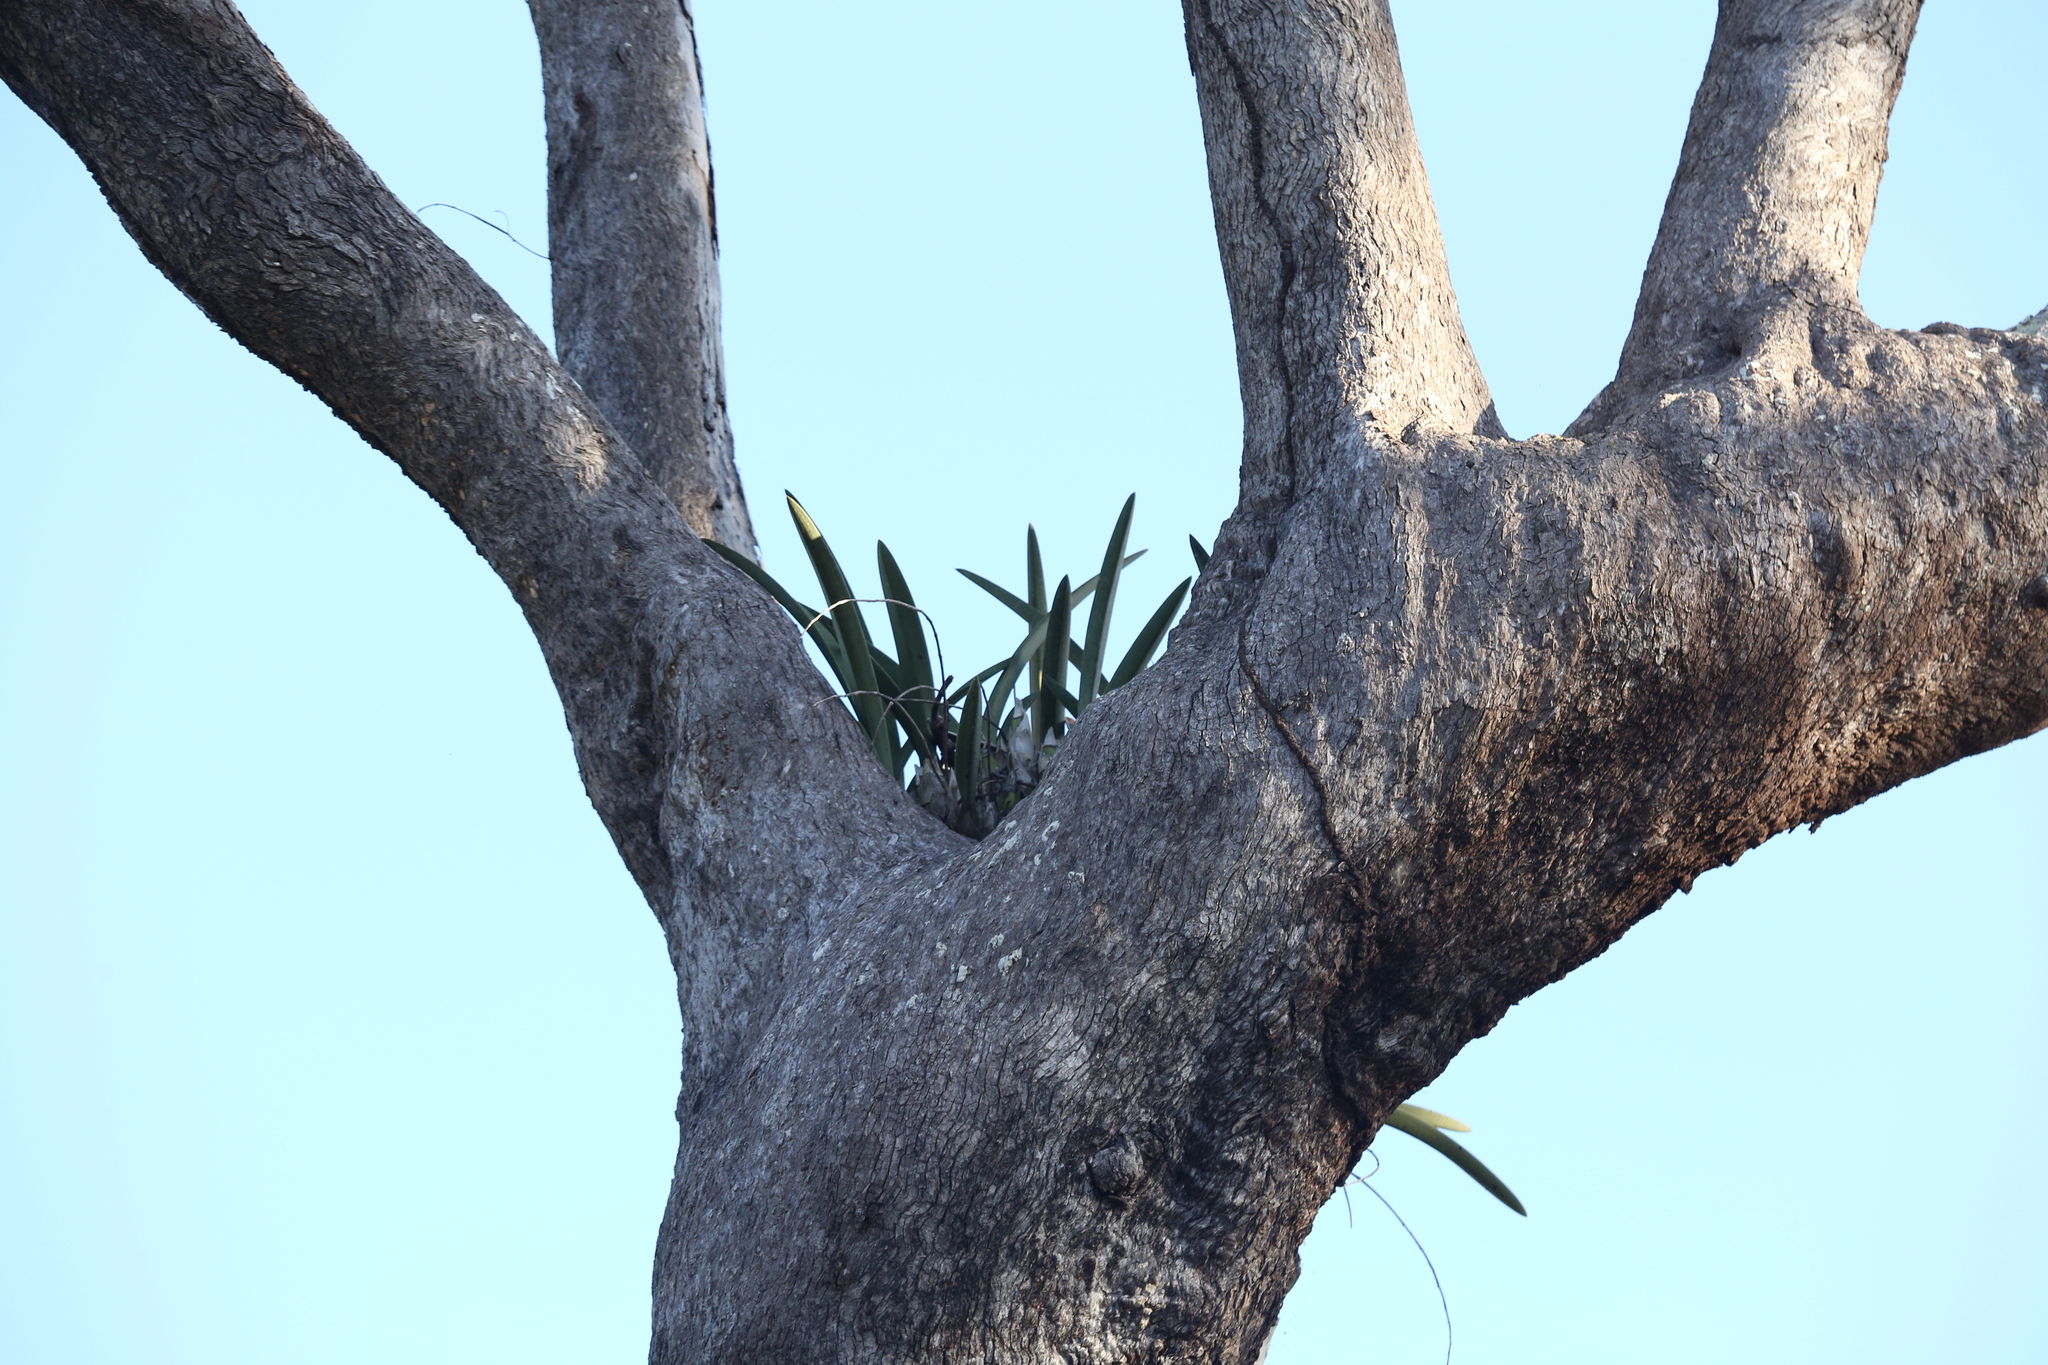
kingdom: Plantae
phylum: Tracheophyta
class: Liliopsida
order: Asparagales
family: Orchidaceae
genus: Cymbidium
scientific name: Cymbidium canaliculatum
